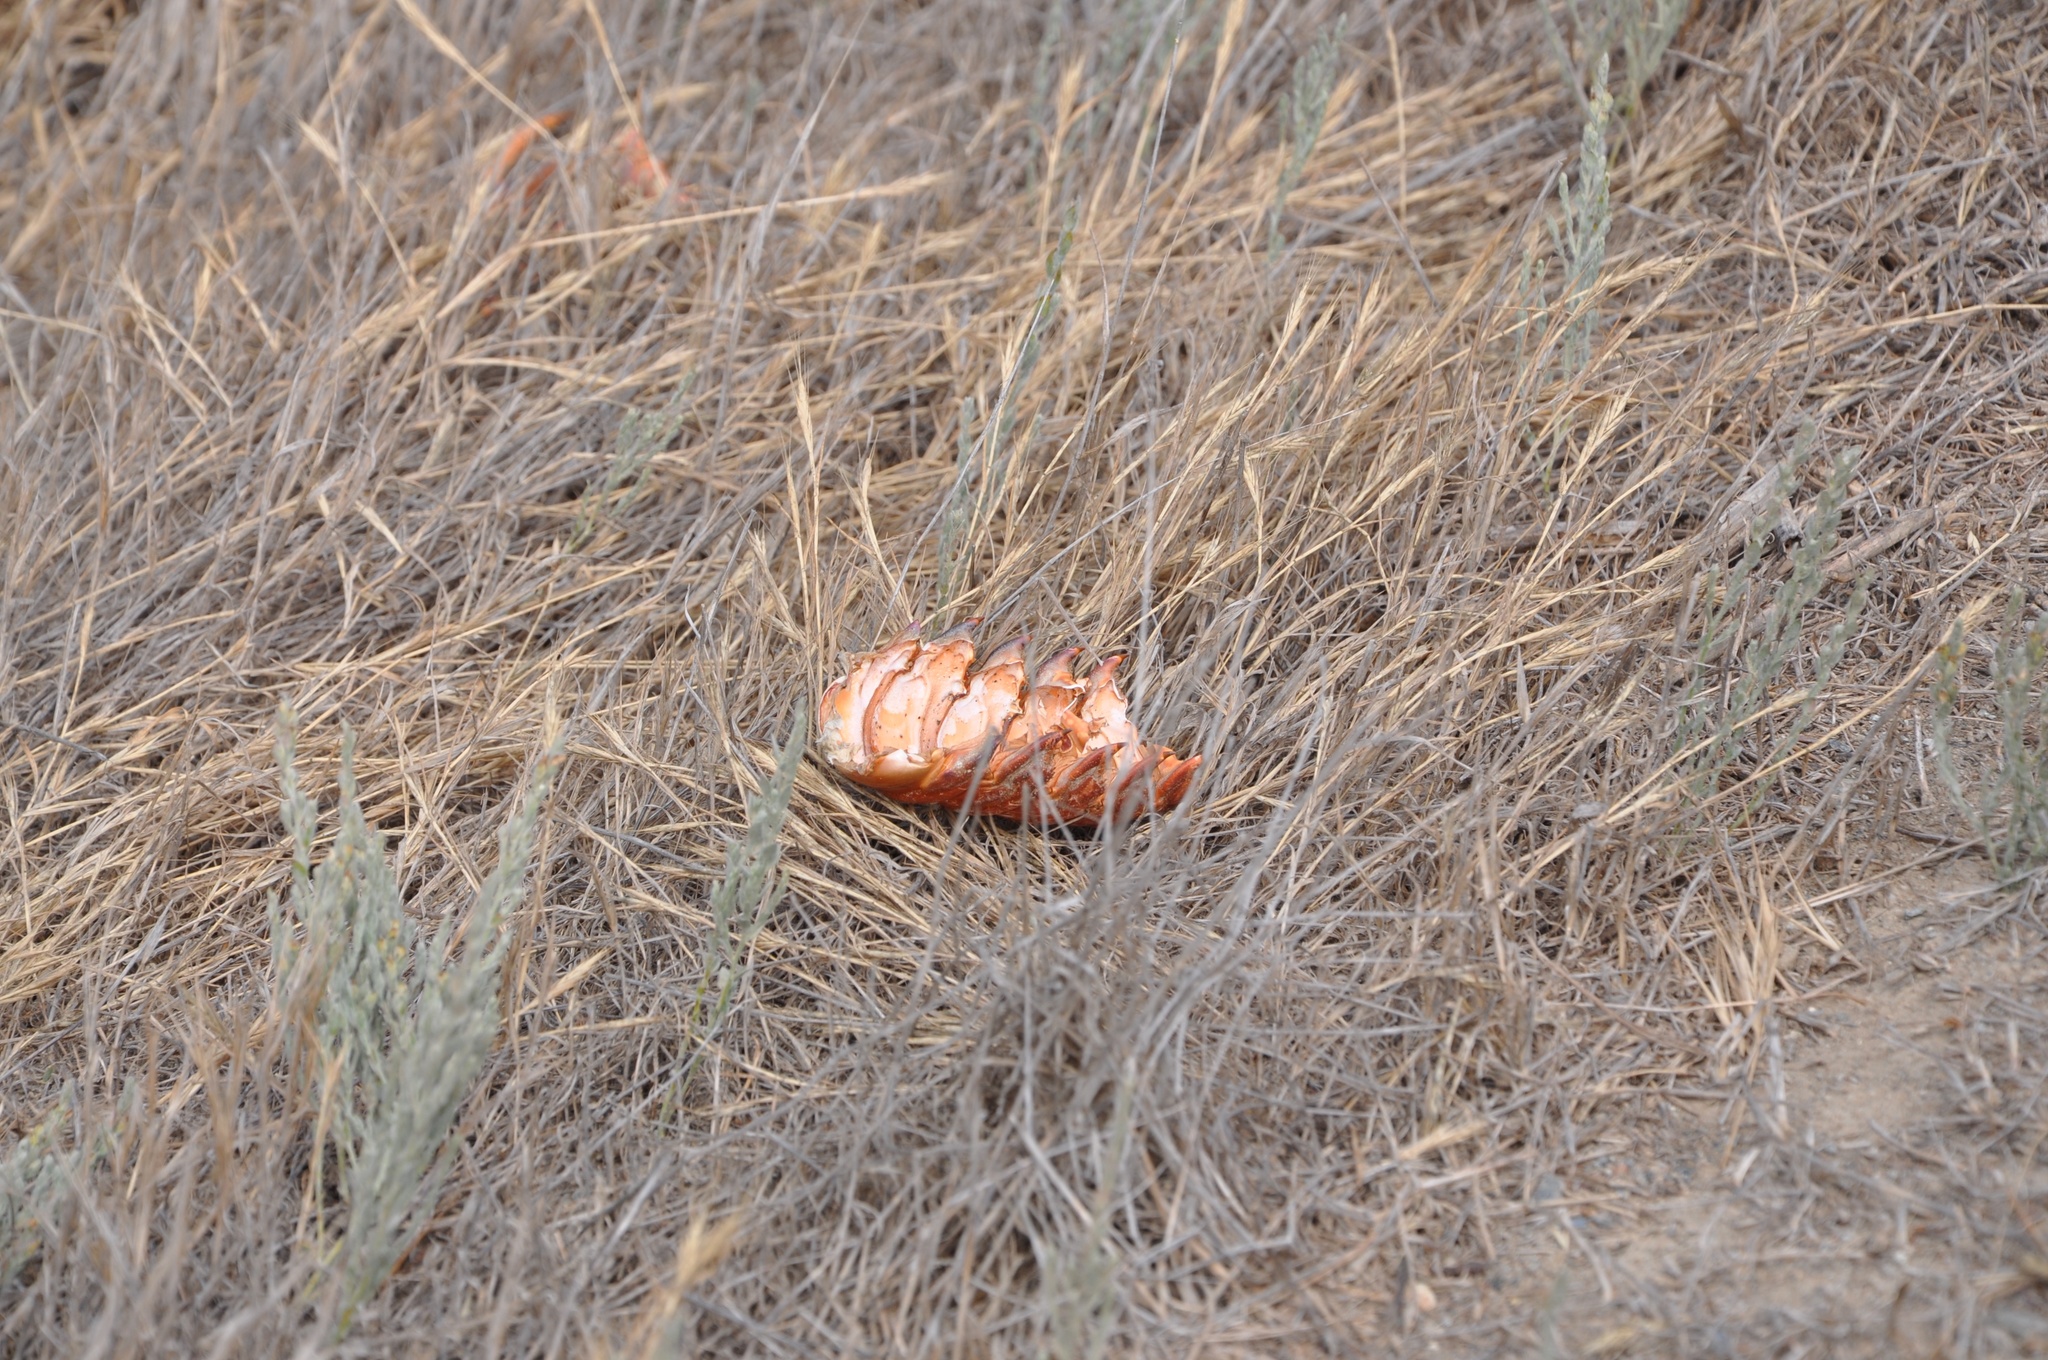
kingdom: Animalia
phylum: Arthropoda
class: Malacostraca
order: Decapoda
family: Palinuridae
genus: Panulirus
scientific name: Panulirus interruptus
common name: California spiny lobster
